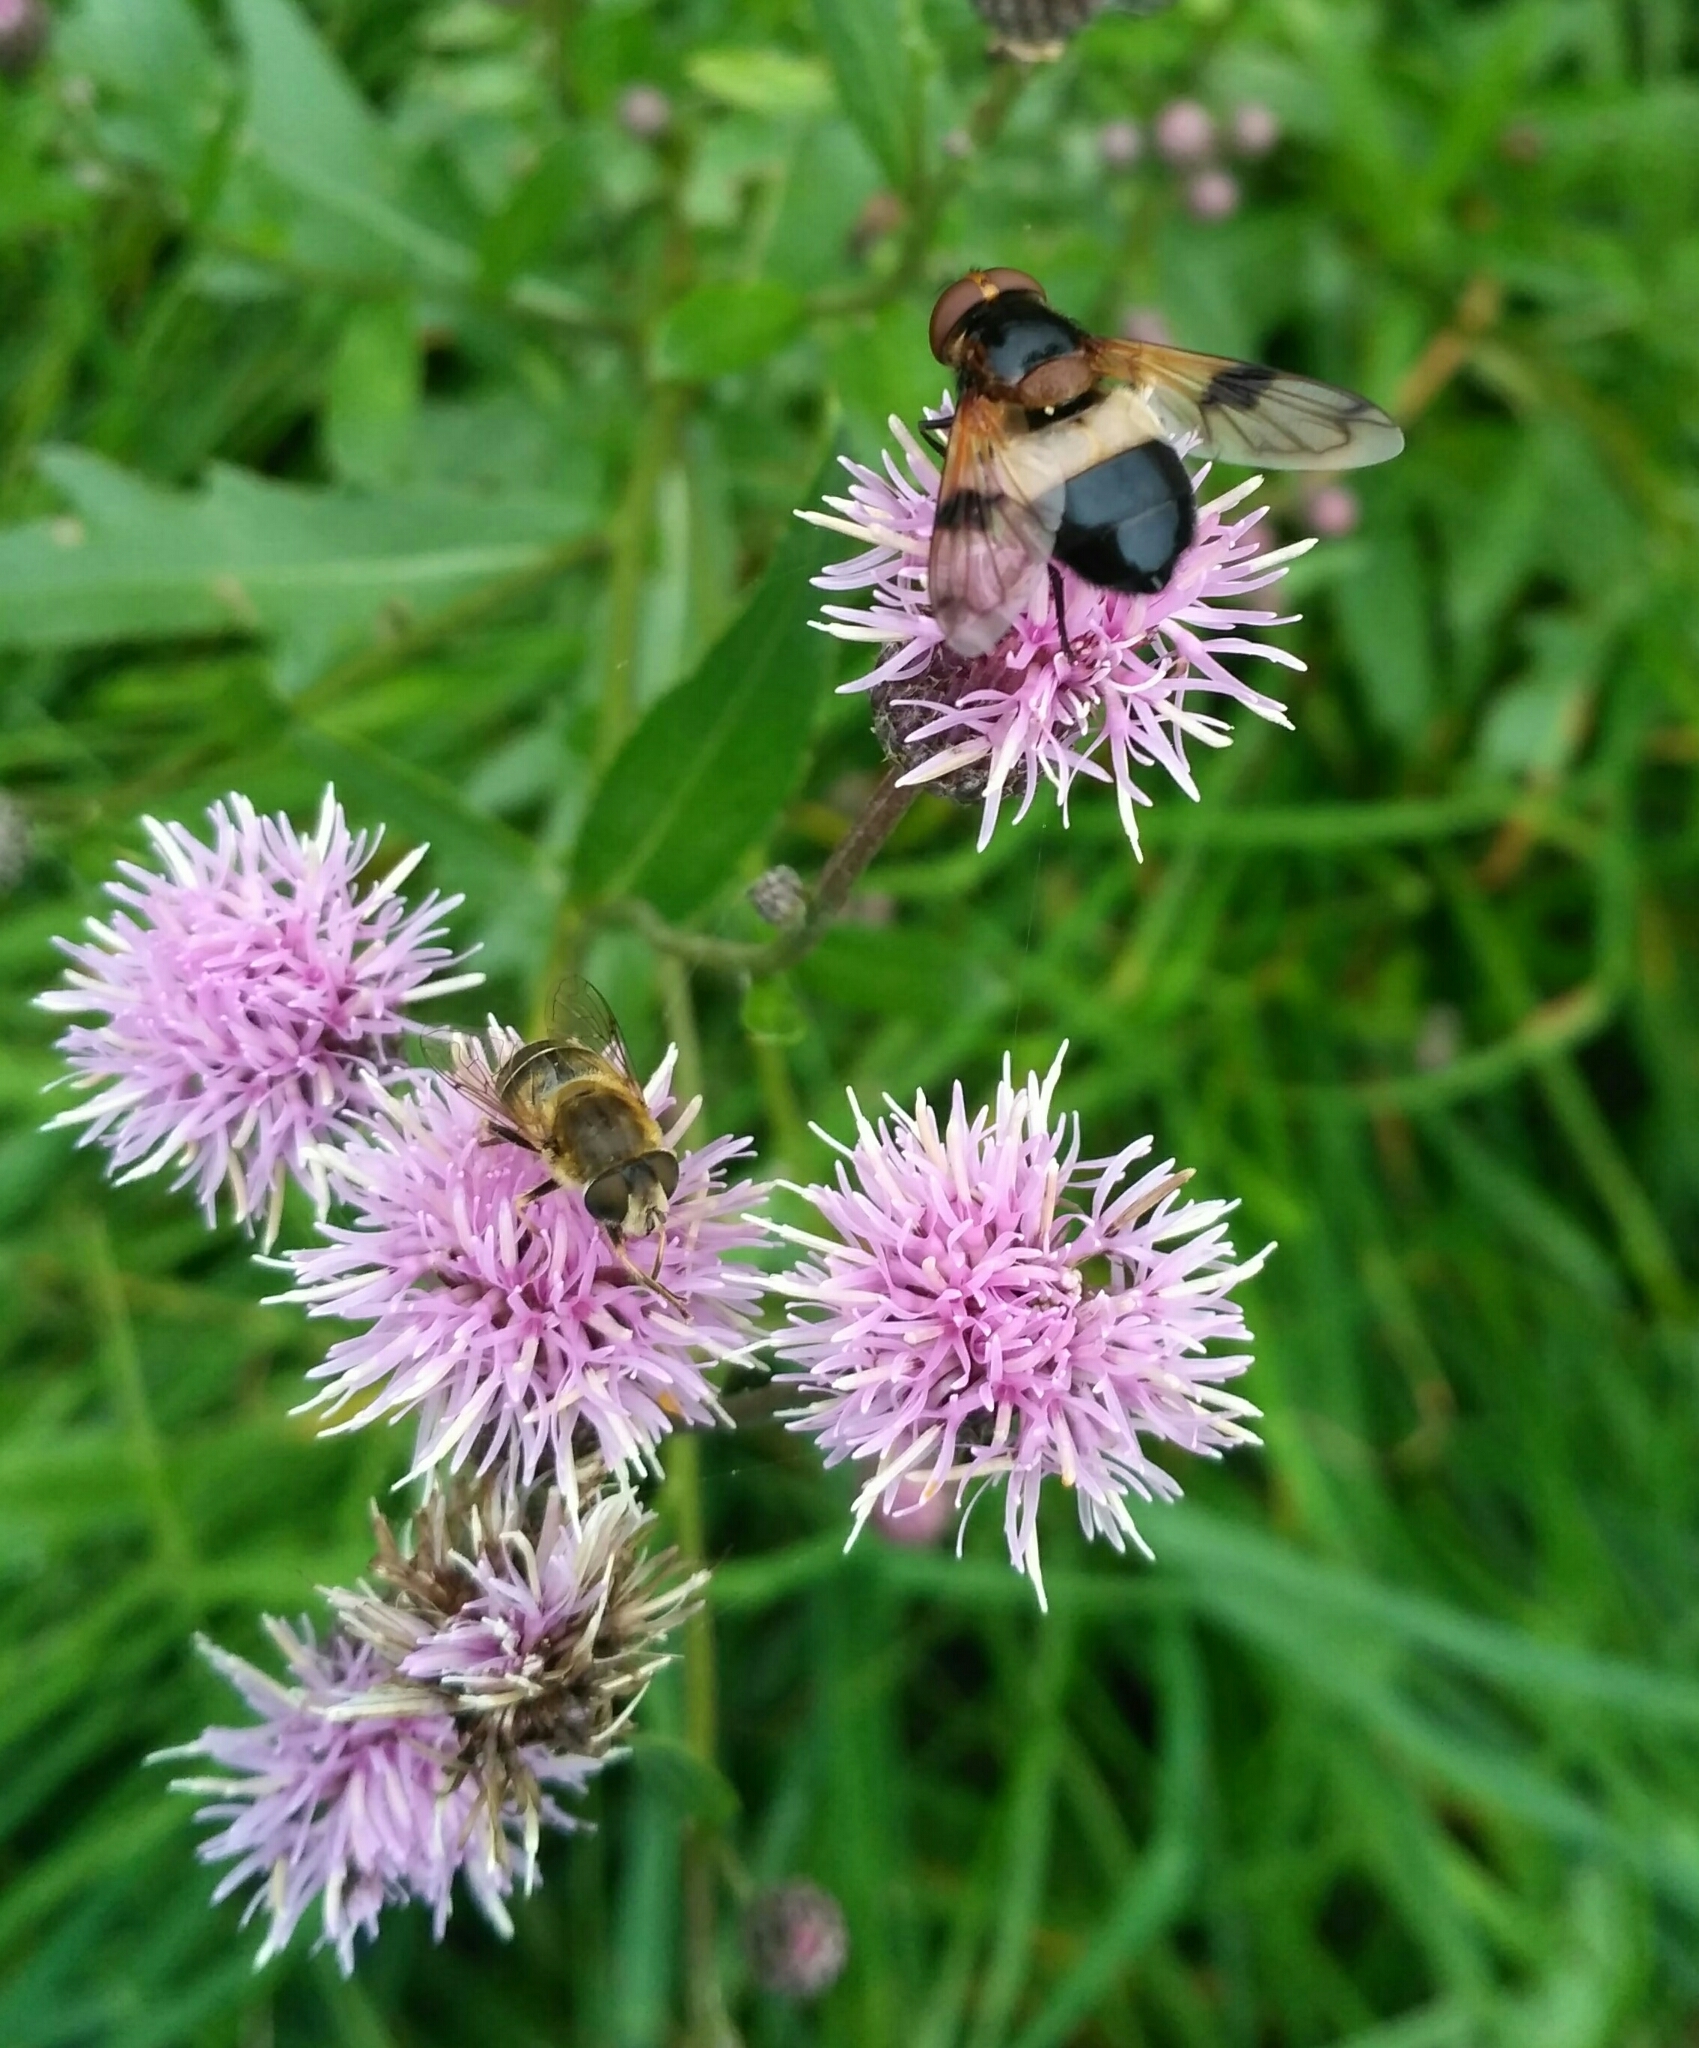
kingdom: Animalia
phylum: Arthropoda
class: Insecta
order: Diptera
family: Syrphidae
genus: Volucella
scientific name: Volucella pellucens
